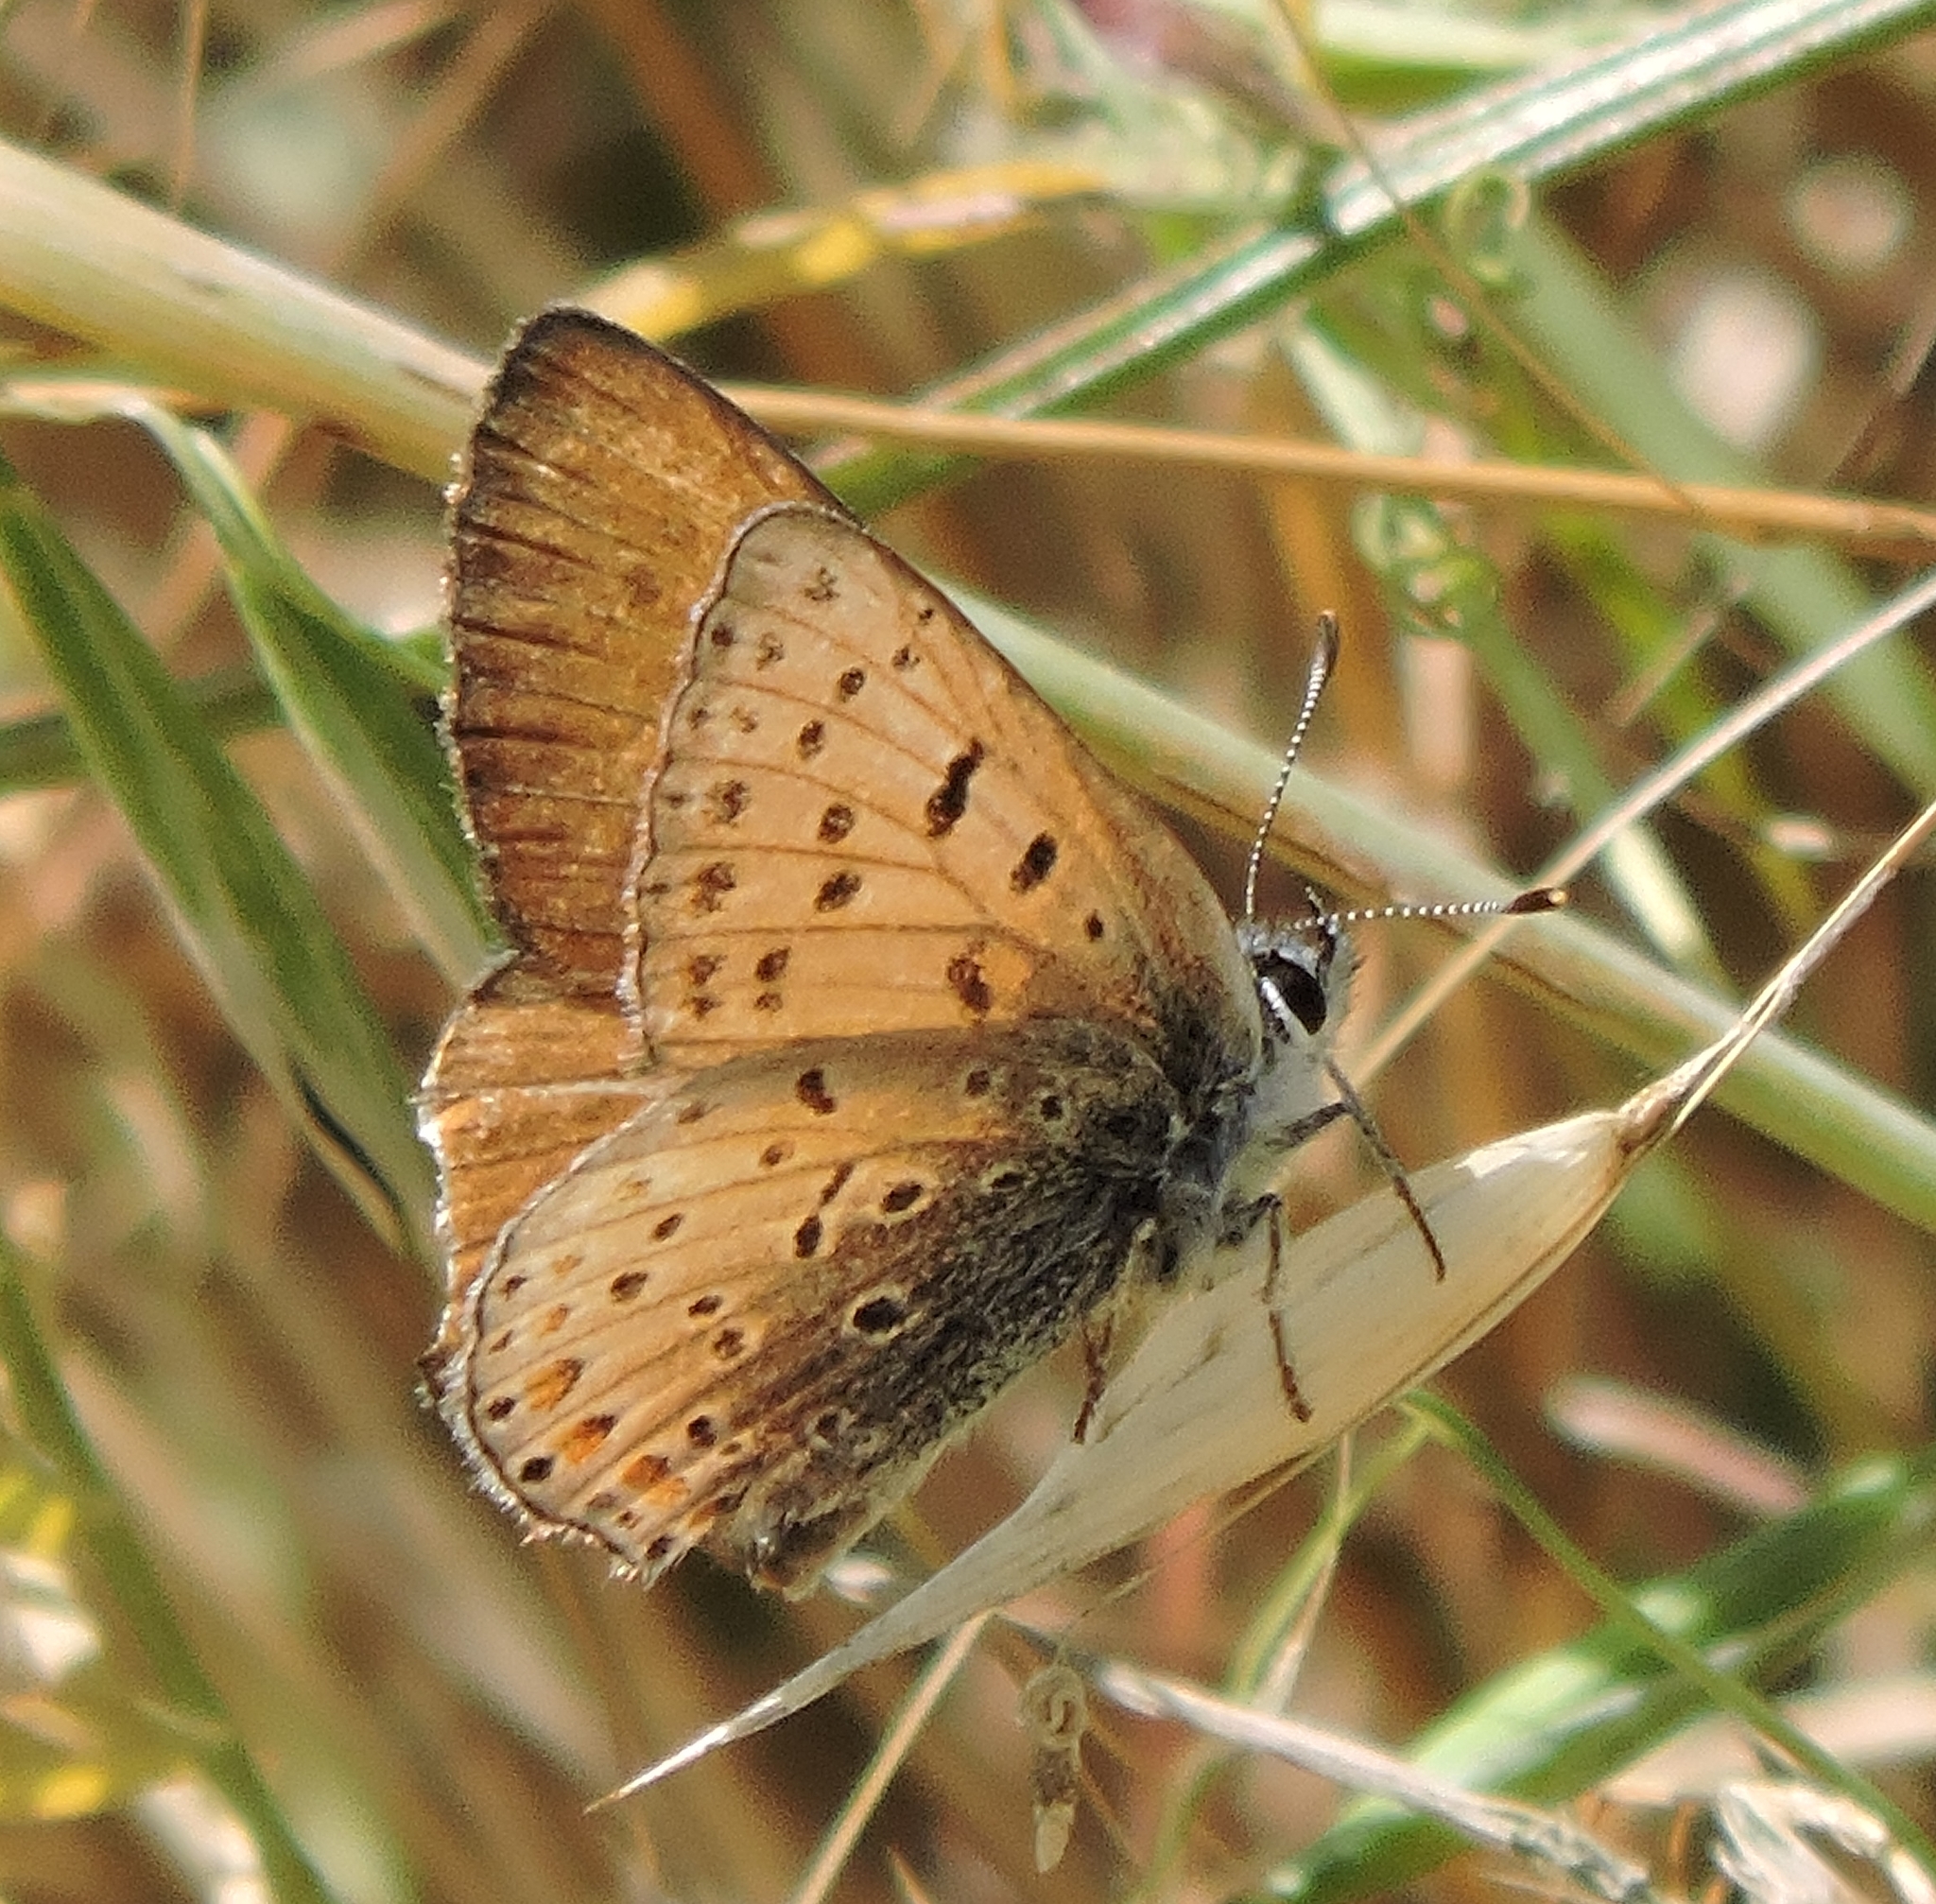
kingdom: Animalia
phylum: Arthropoda
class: Insecta
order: Lepidoptera
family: Lycaenidae
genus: Tharsalea
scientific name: Tharsalea gorgon
